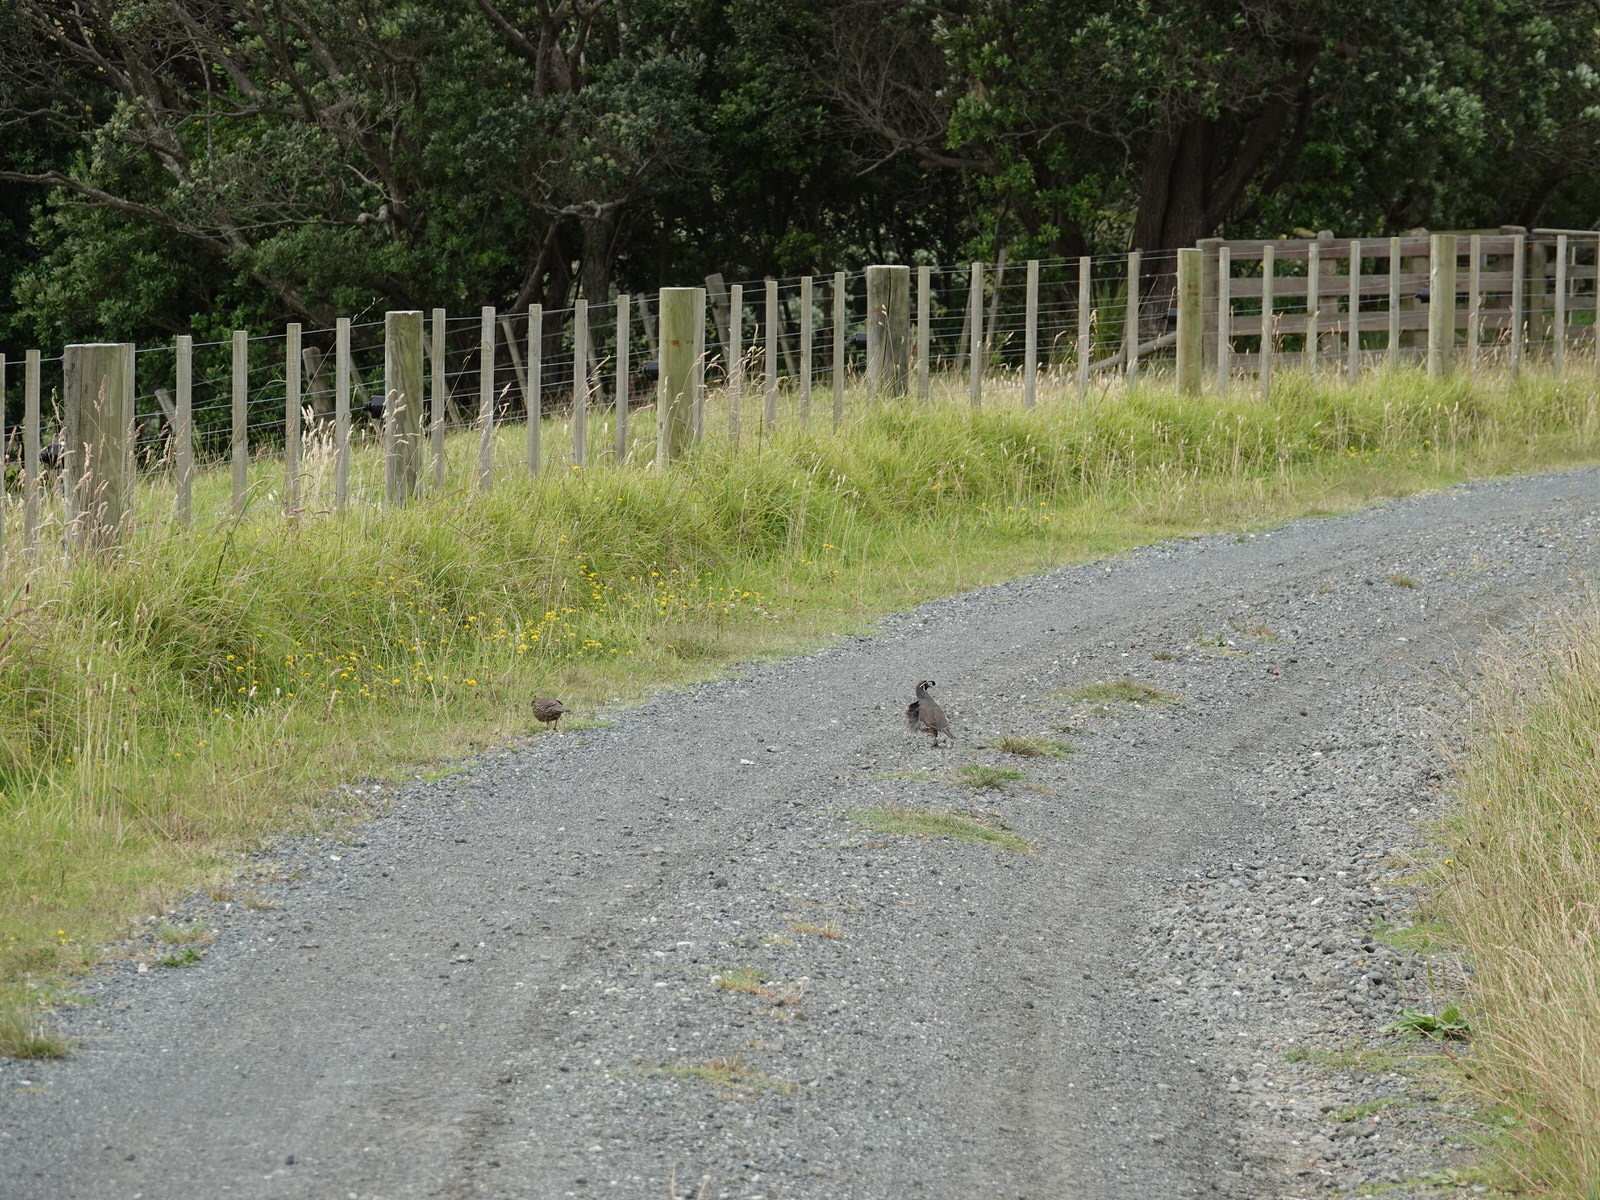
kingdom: Animalia
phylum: Chordata
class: Aves
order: Galliformes
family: Odontophoridae
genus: Callipepla
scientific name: Callipepla californica
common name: California quail
